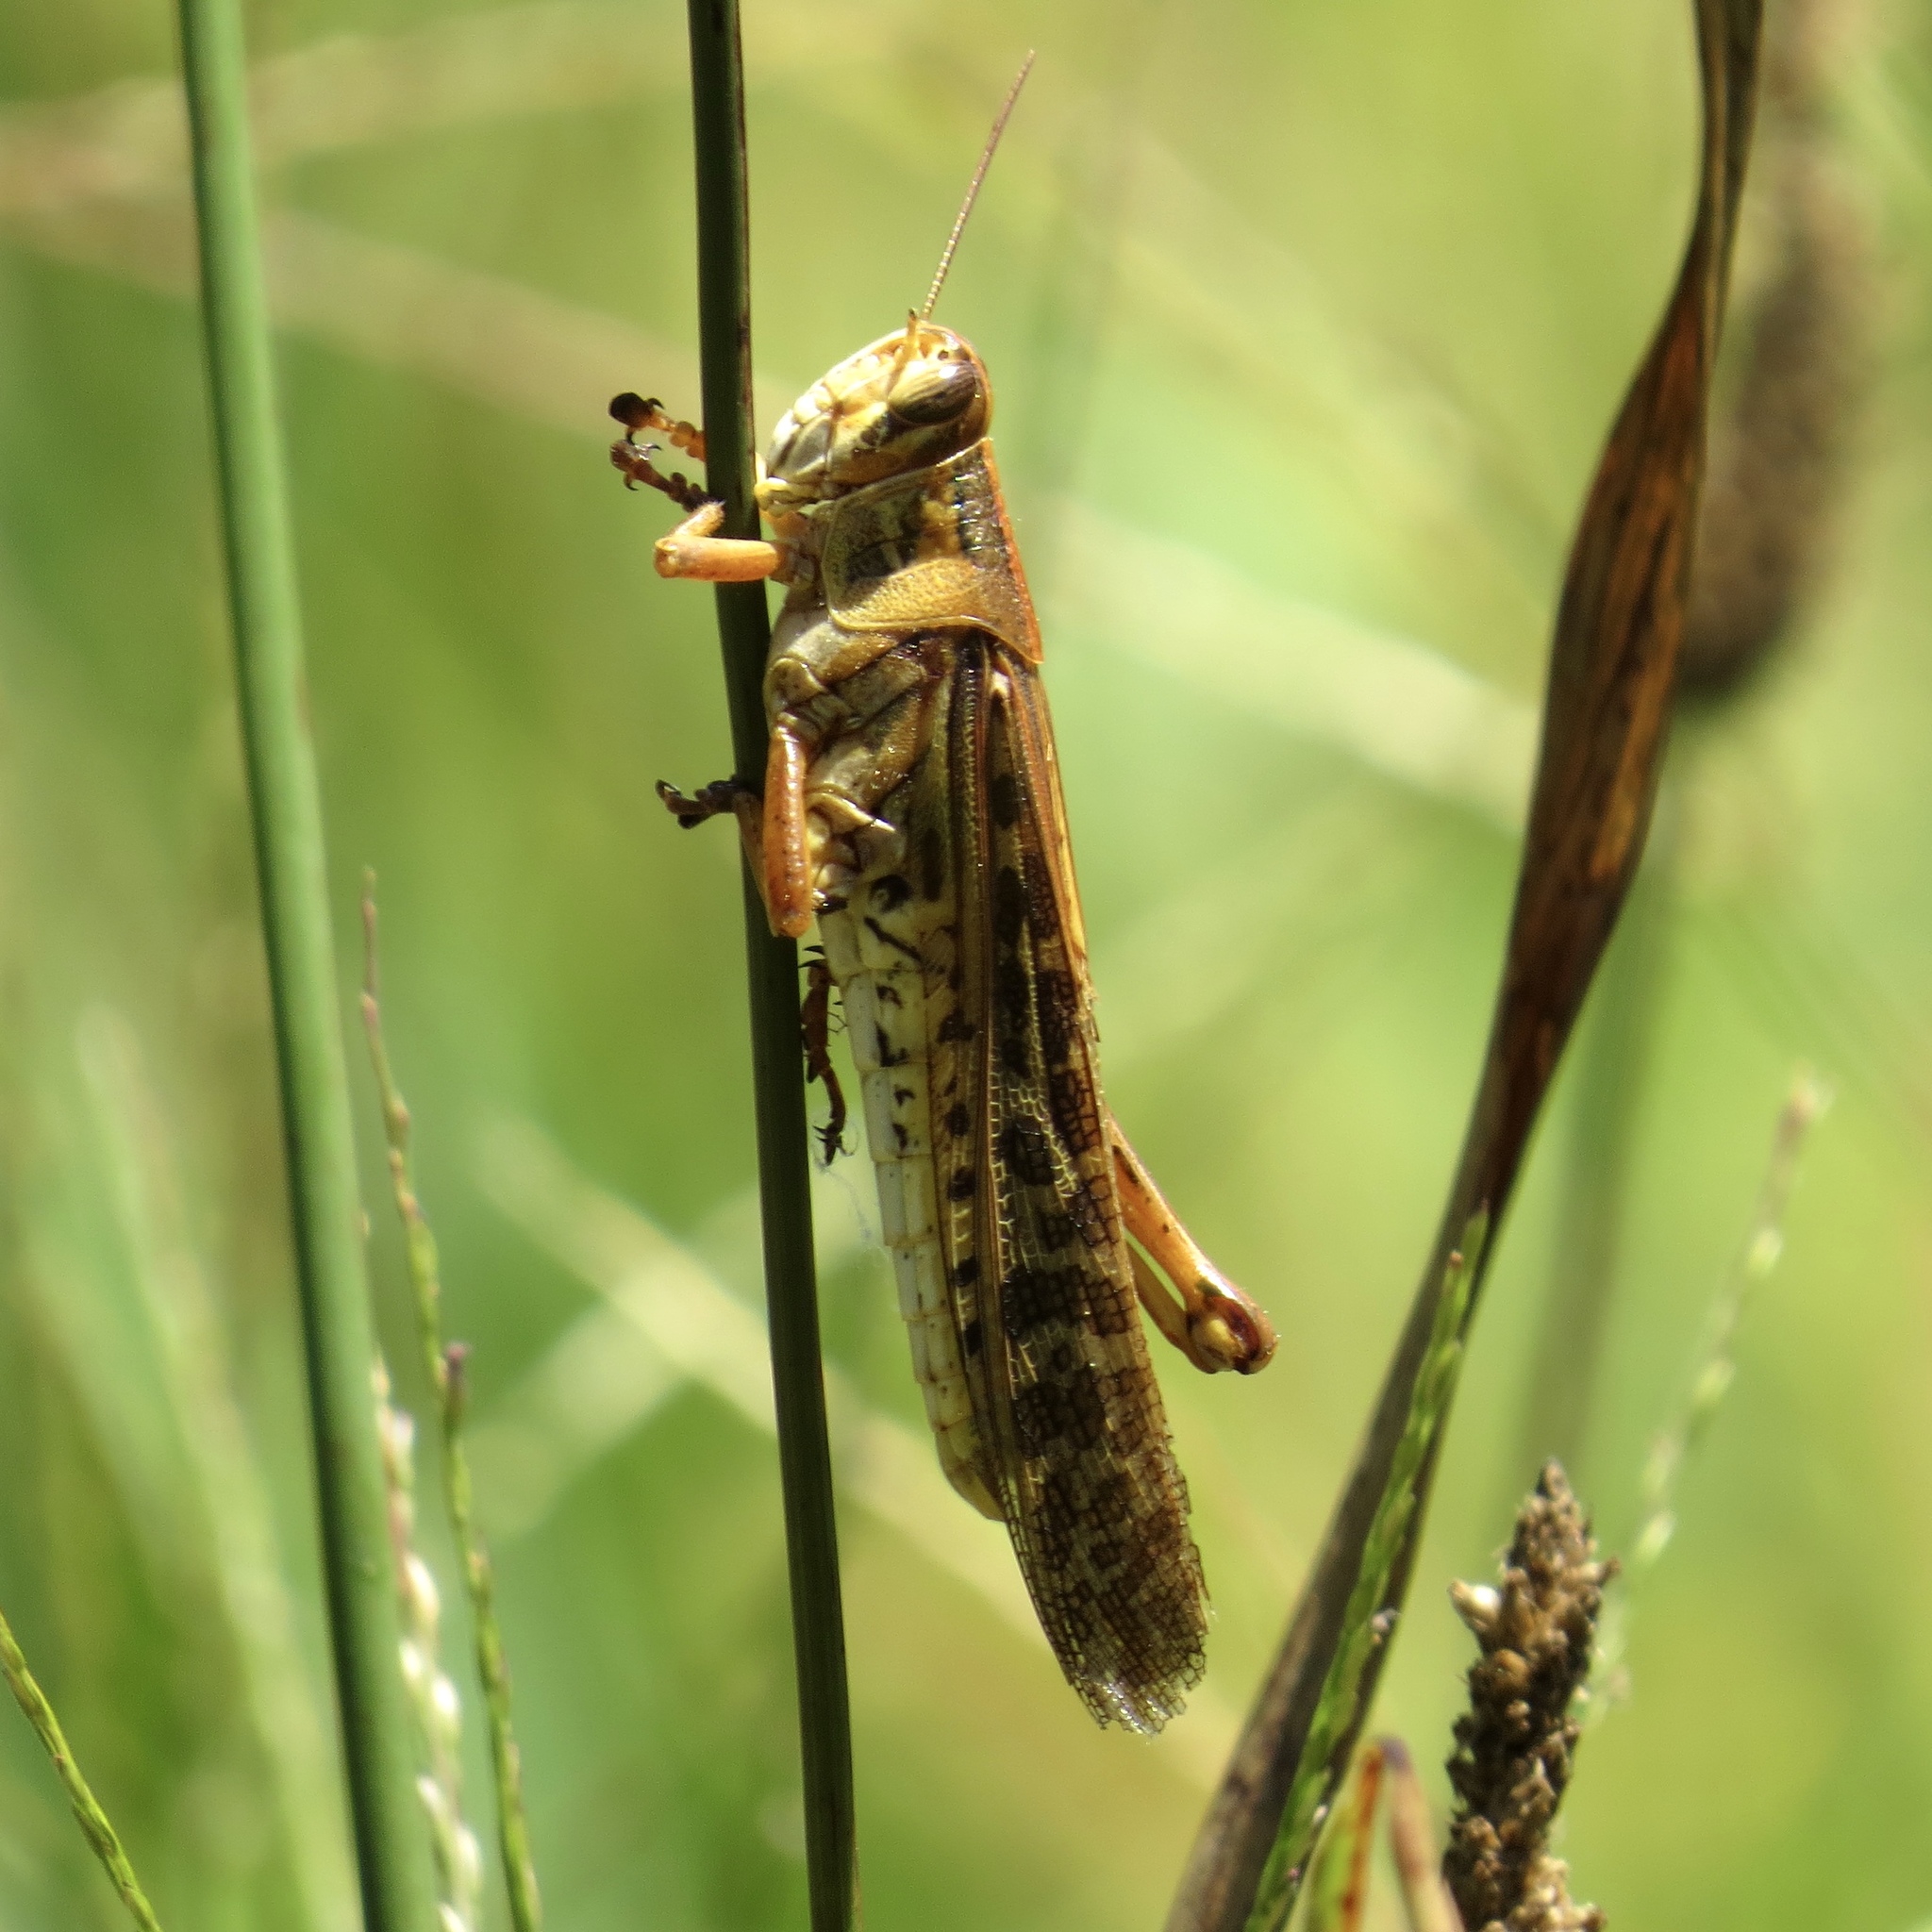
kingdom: Animalia
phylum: Arthropoda
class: Insecta
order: Orthoptera
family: Acrididae
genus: Schistocerca
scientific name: Schistocerca americana
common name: American bird locust
